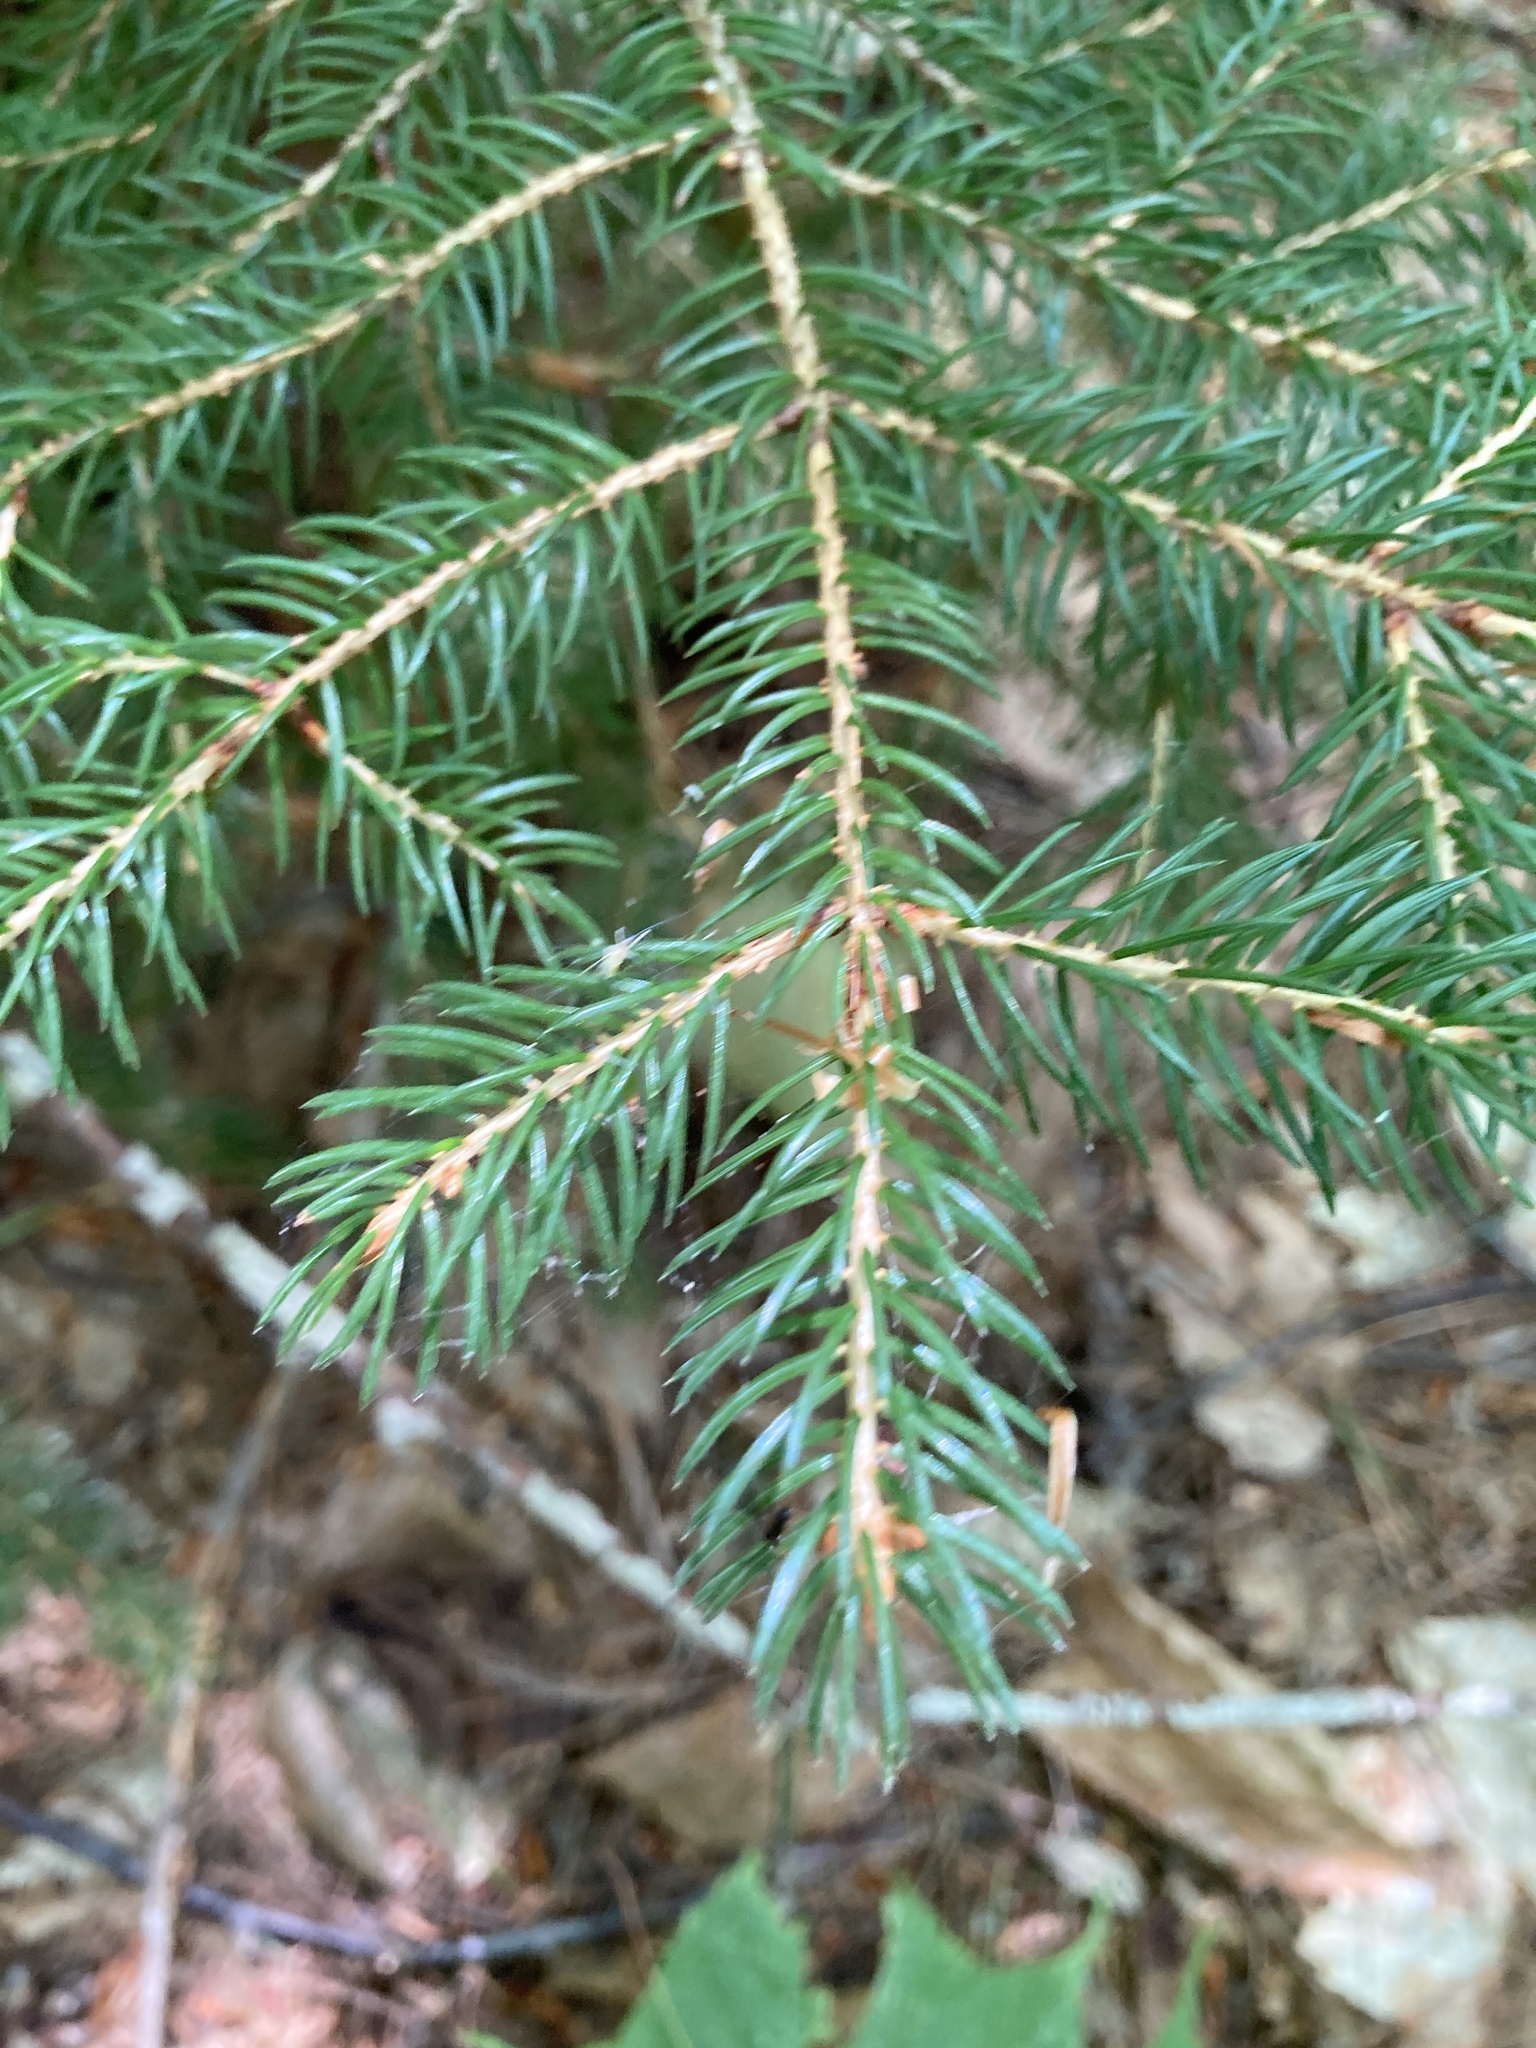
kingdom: Plantae
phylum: Tracheophyta
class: Pinopsida
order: Pinales
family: Pinaceae
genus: Picea
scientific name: Picea rubens
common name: Red spruce
